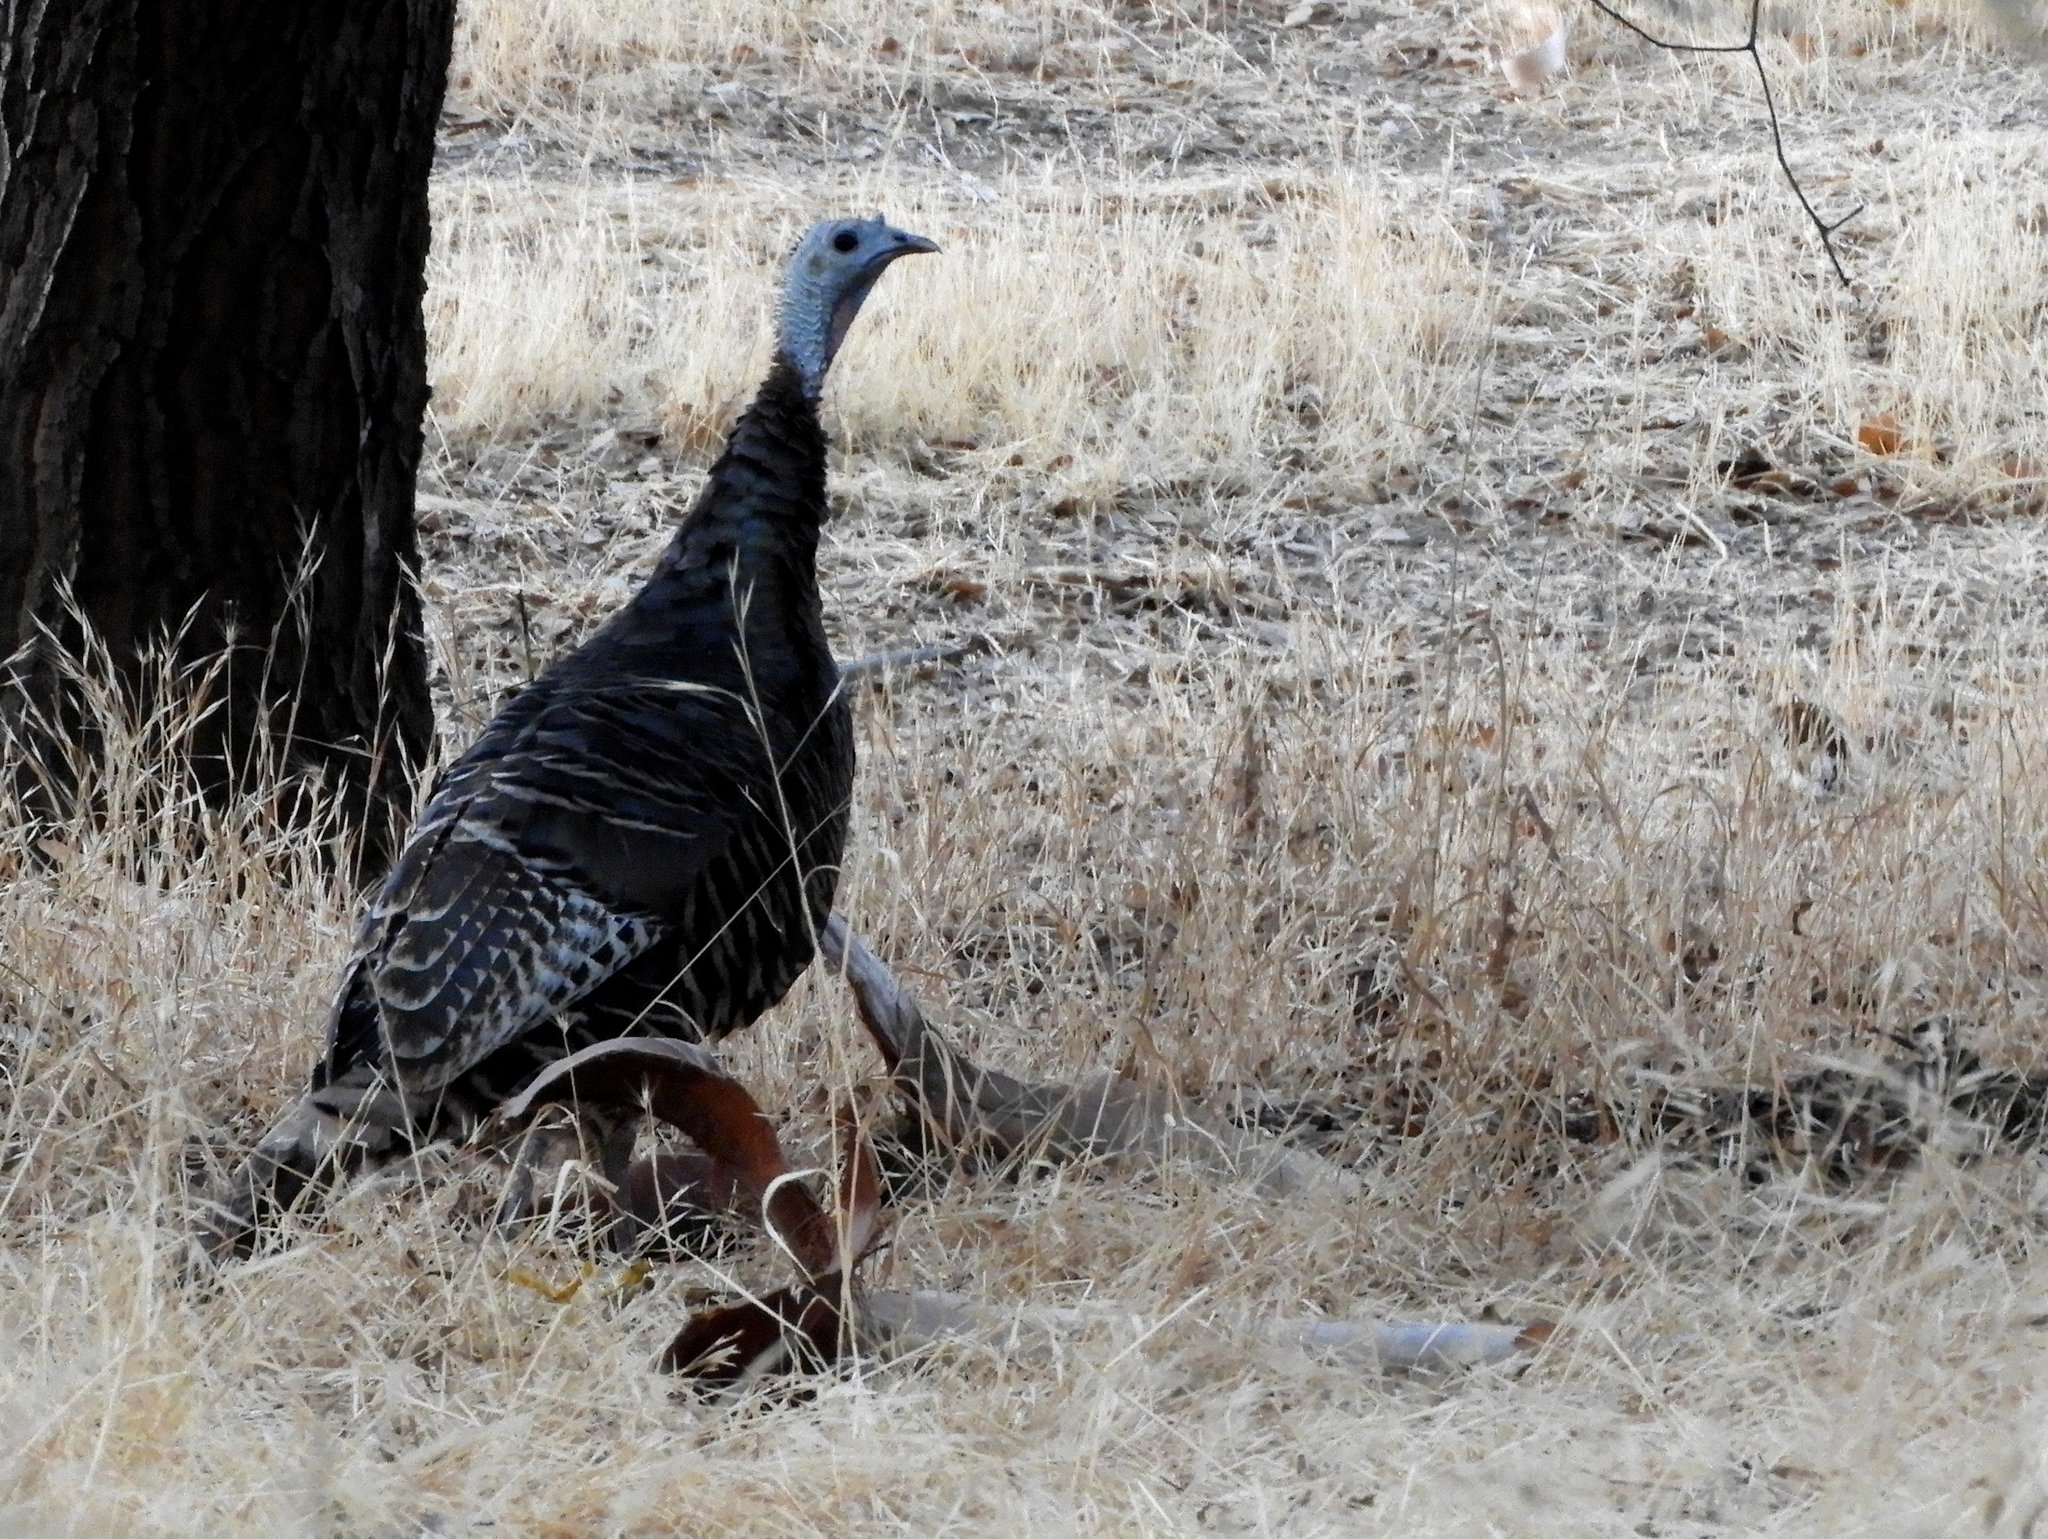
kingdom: Animalia
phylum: Chordata
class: Aves
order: Galliformes
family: Phasianidae
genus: Meleagris
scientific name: Meleagris gallopavo
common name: Wild turkey
